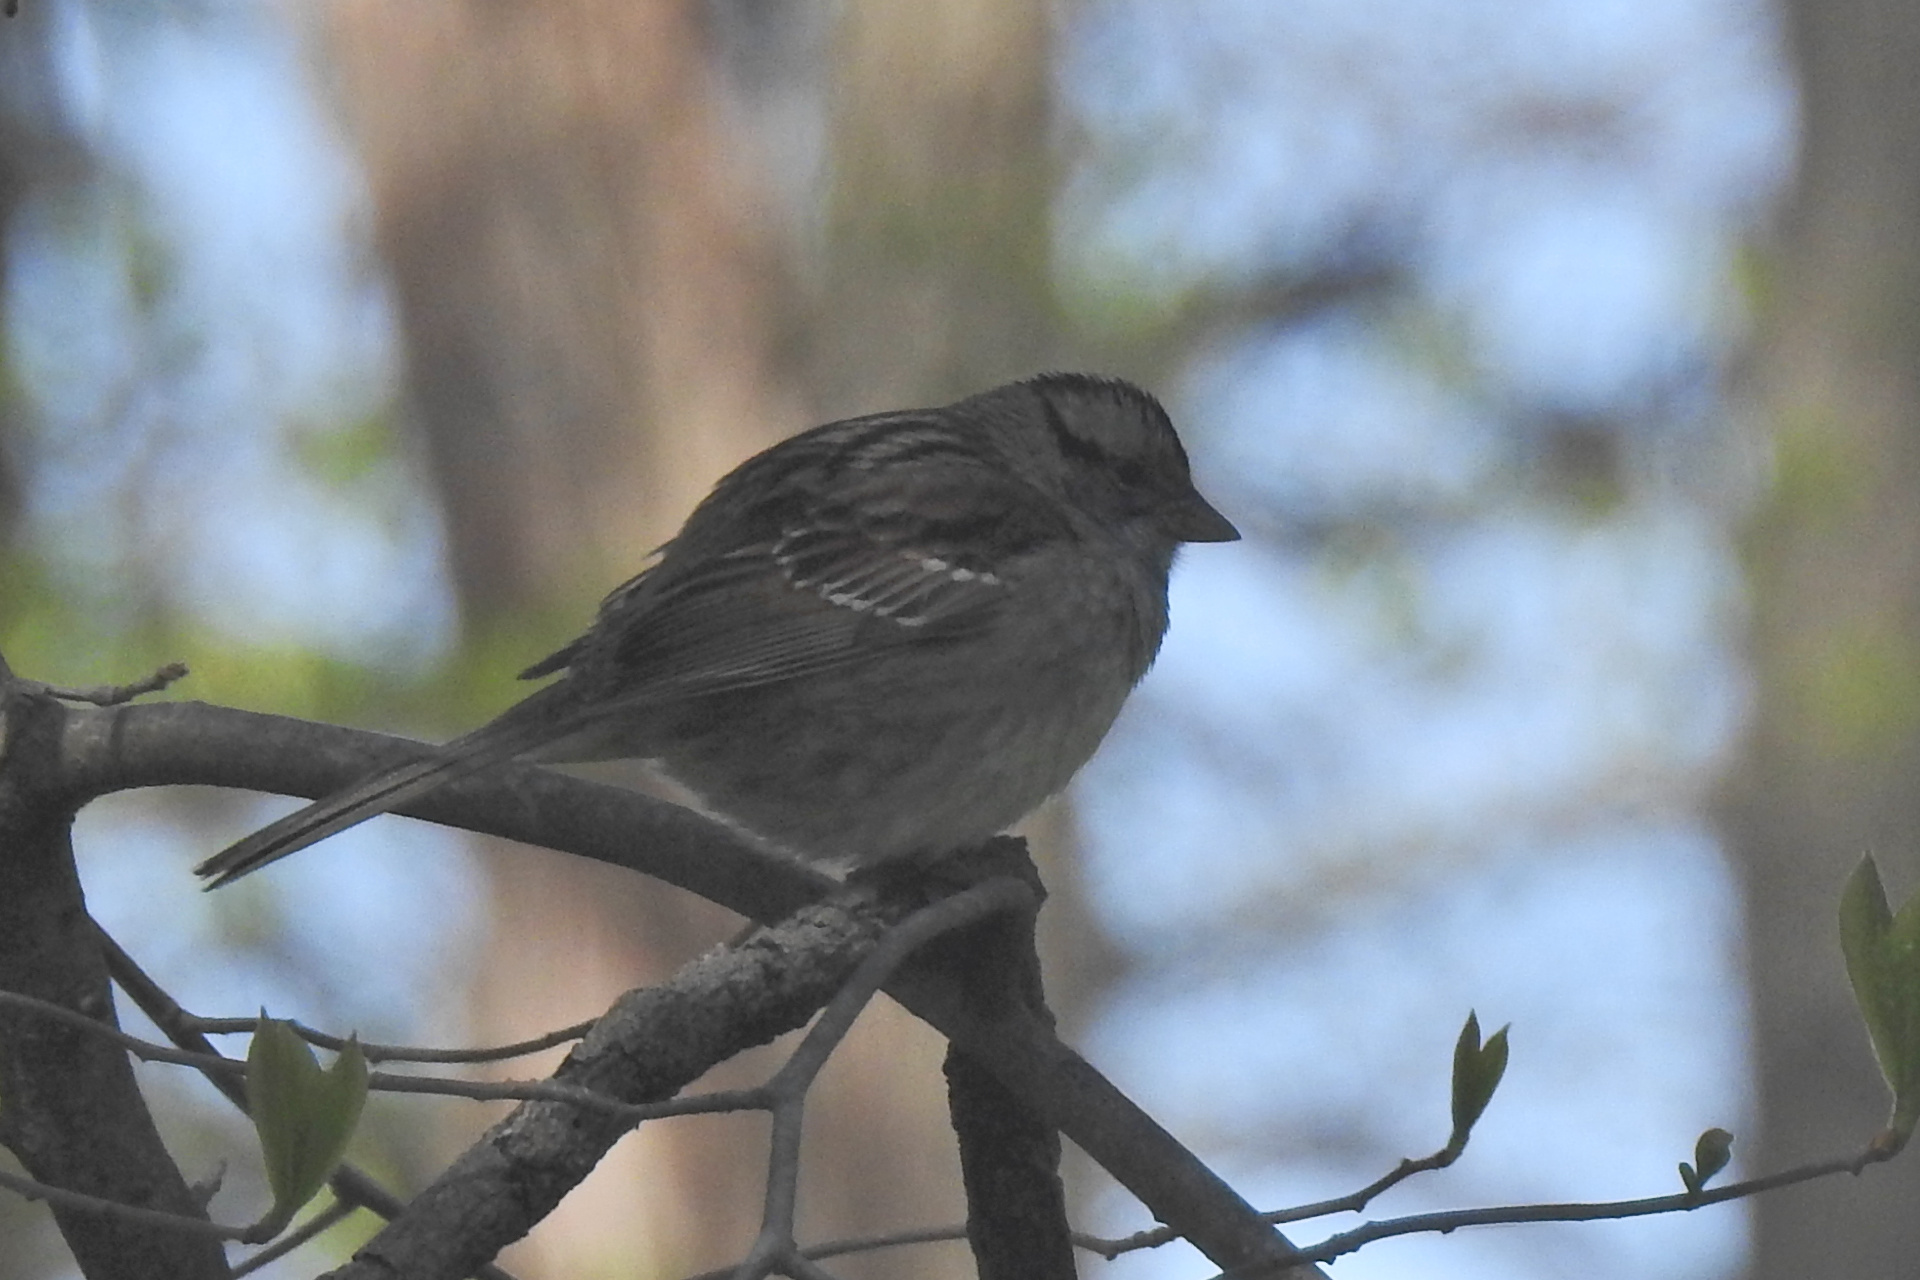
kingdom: Animalia
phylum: Chordata
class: Aves
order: Passeriformes
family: Passerellidae
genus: Zonotrichia
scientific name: Zonotrichia albicollis
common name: White-throated sparrow
